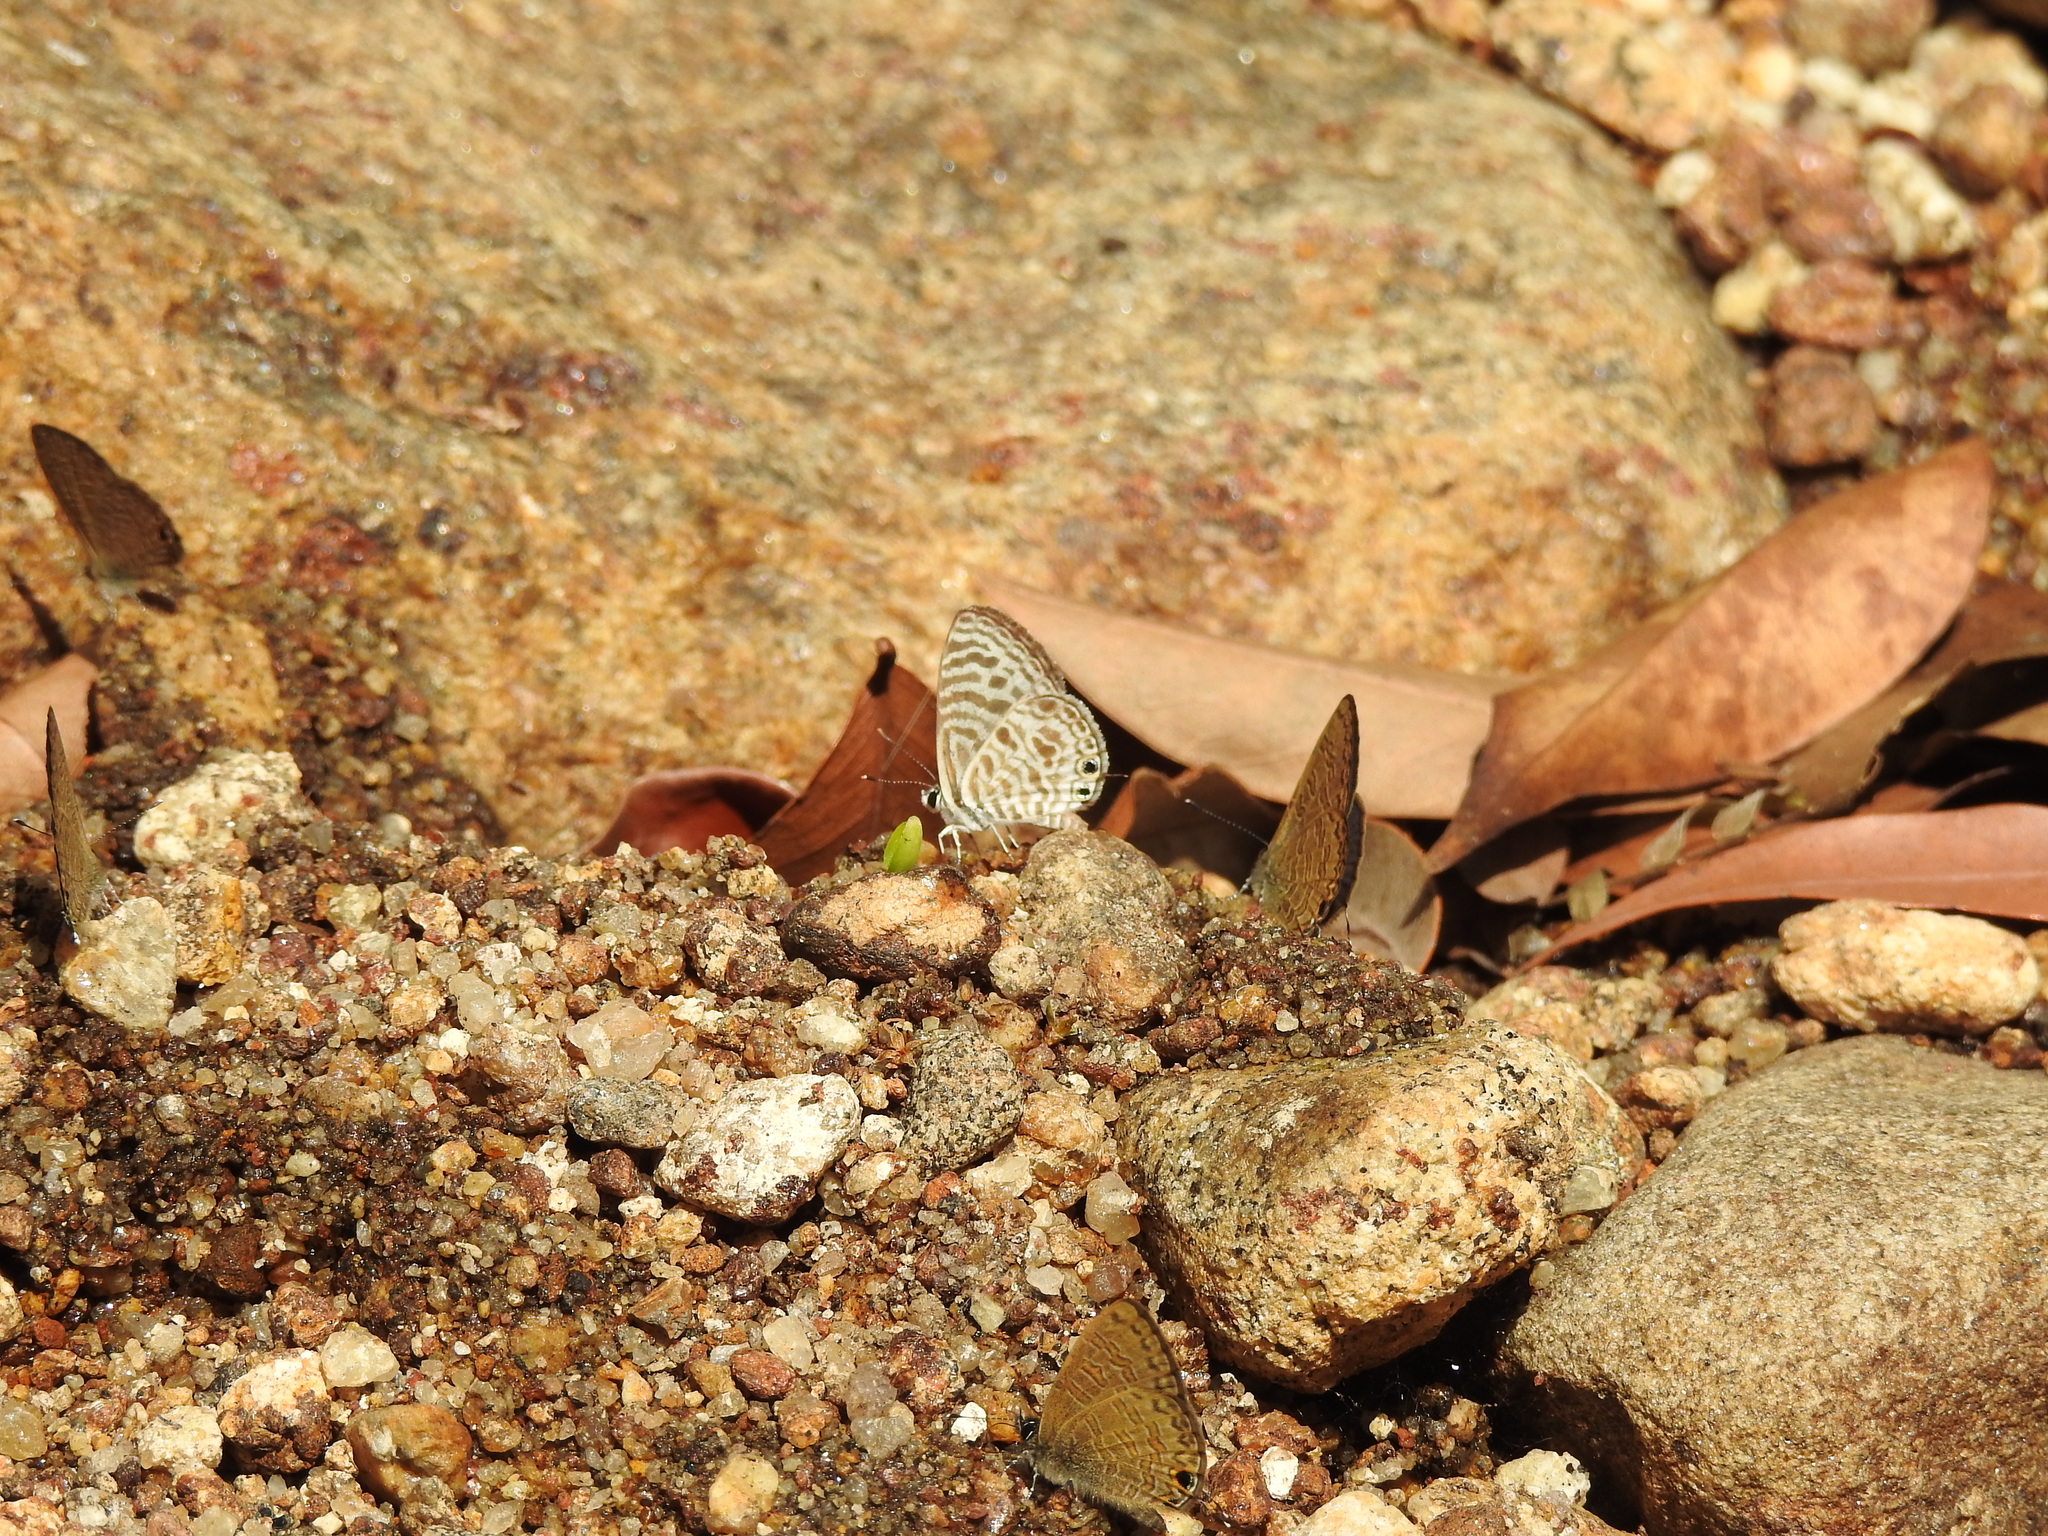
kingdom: Animalia
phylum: Arthropoda
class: Insecta
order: Lepidoptera
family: Lycaenidae
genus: Leptotes
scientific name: Leptotes plinius
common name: Zebra blue
